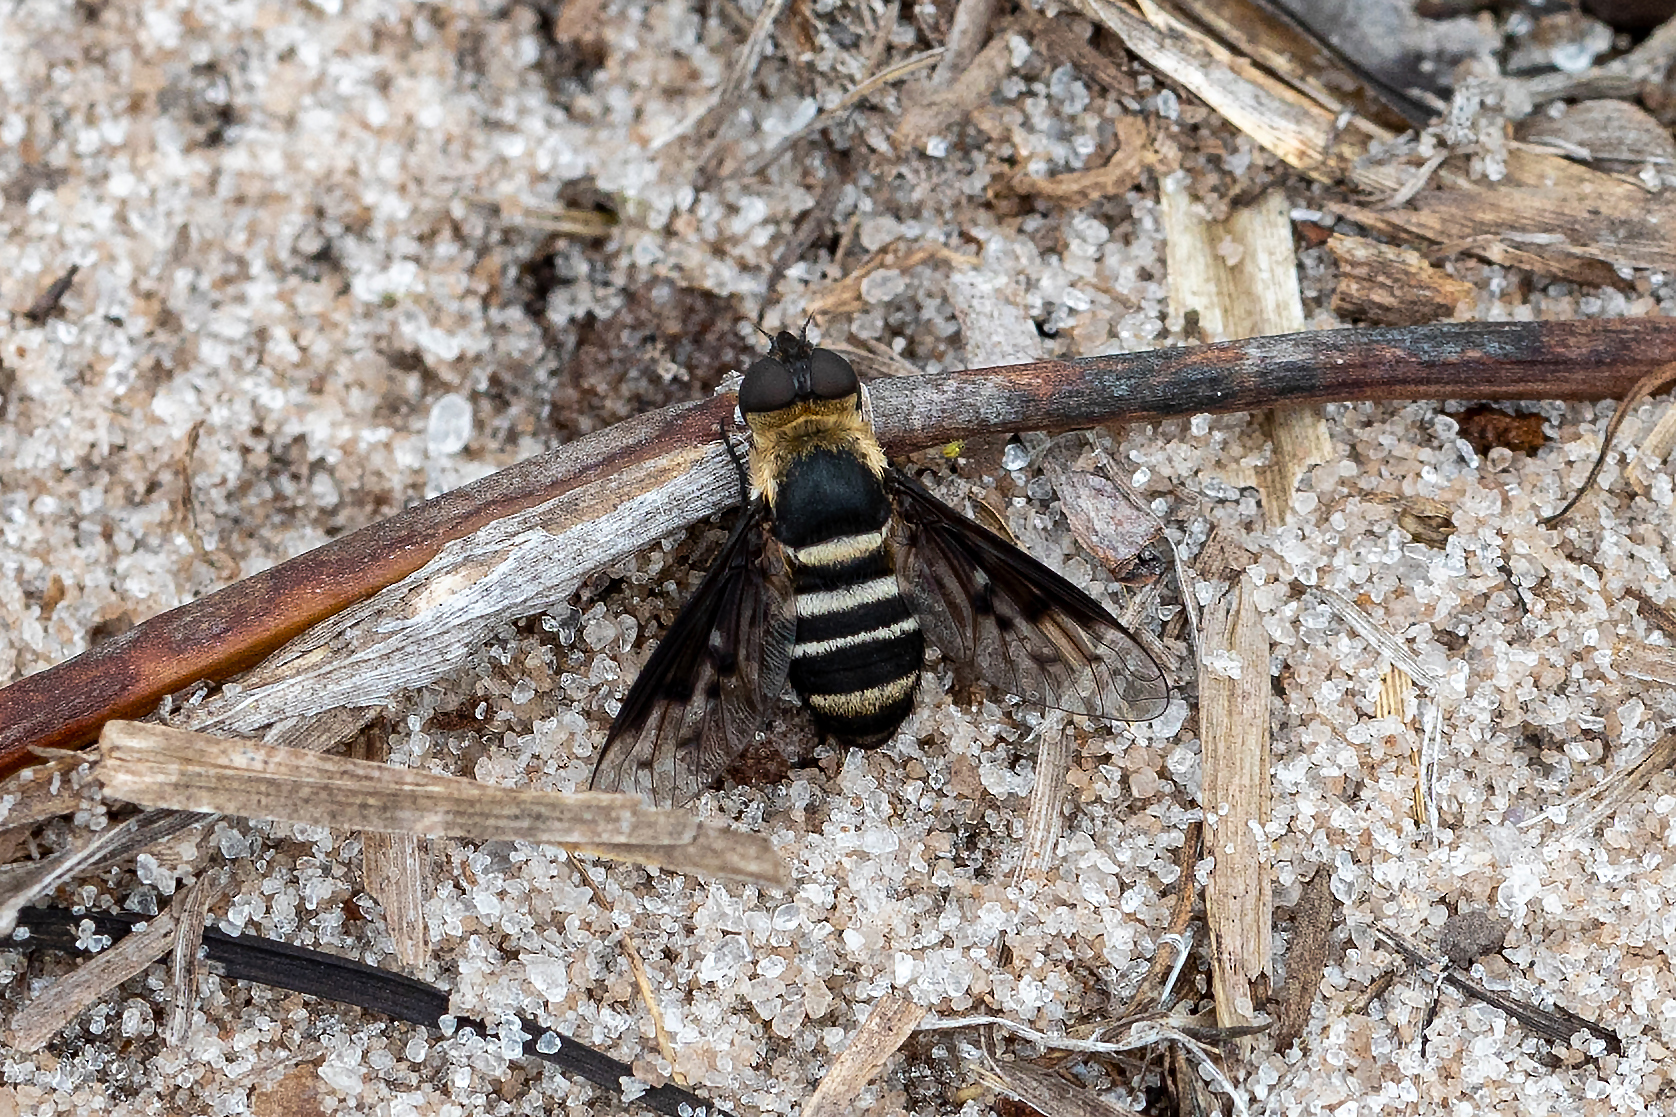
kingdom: Animalia
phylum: Arthropoda
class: Insecta
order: Diptera
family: Bombyliidae
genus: Chrysanthrax
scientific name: Chrysanthrax dispar
